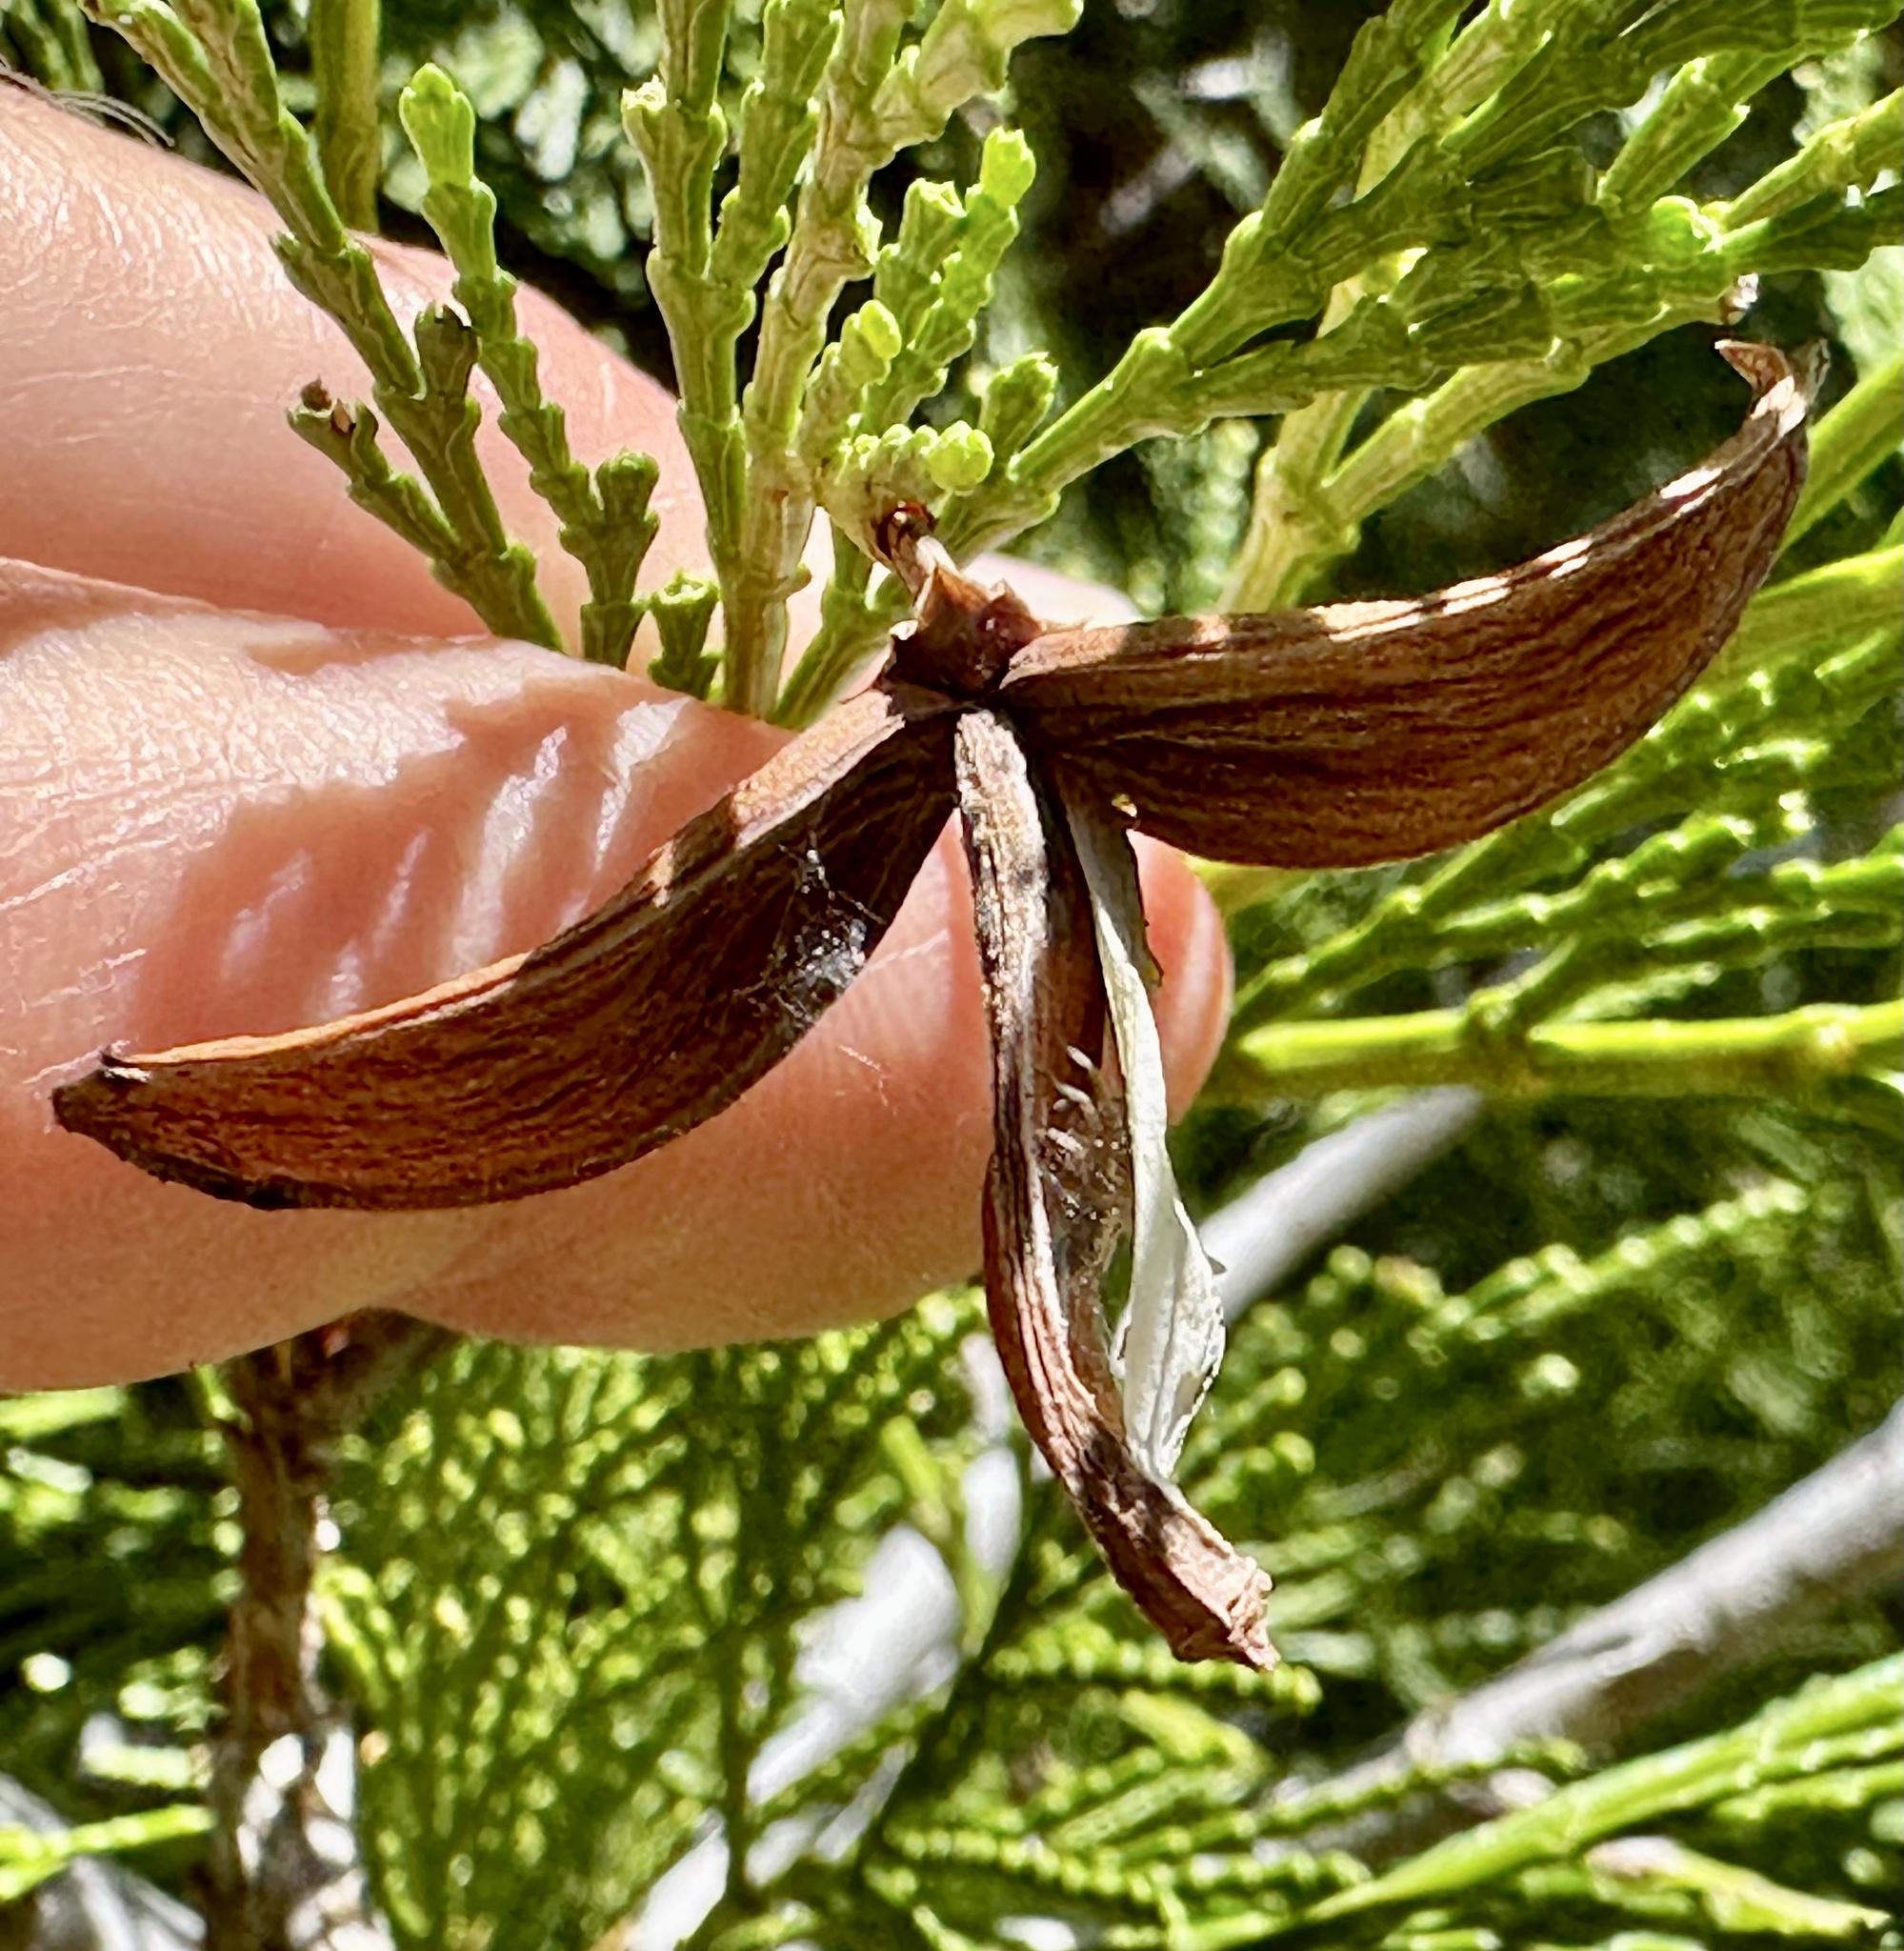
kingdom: Plantae
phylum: Tracheophyta
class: Pinopsida
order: Pinales
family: Cupressaceae
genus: Calocedrus
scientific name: Calocedrus decurrens
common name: Californian incense-cedar
